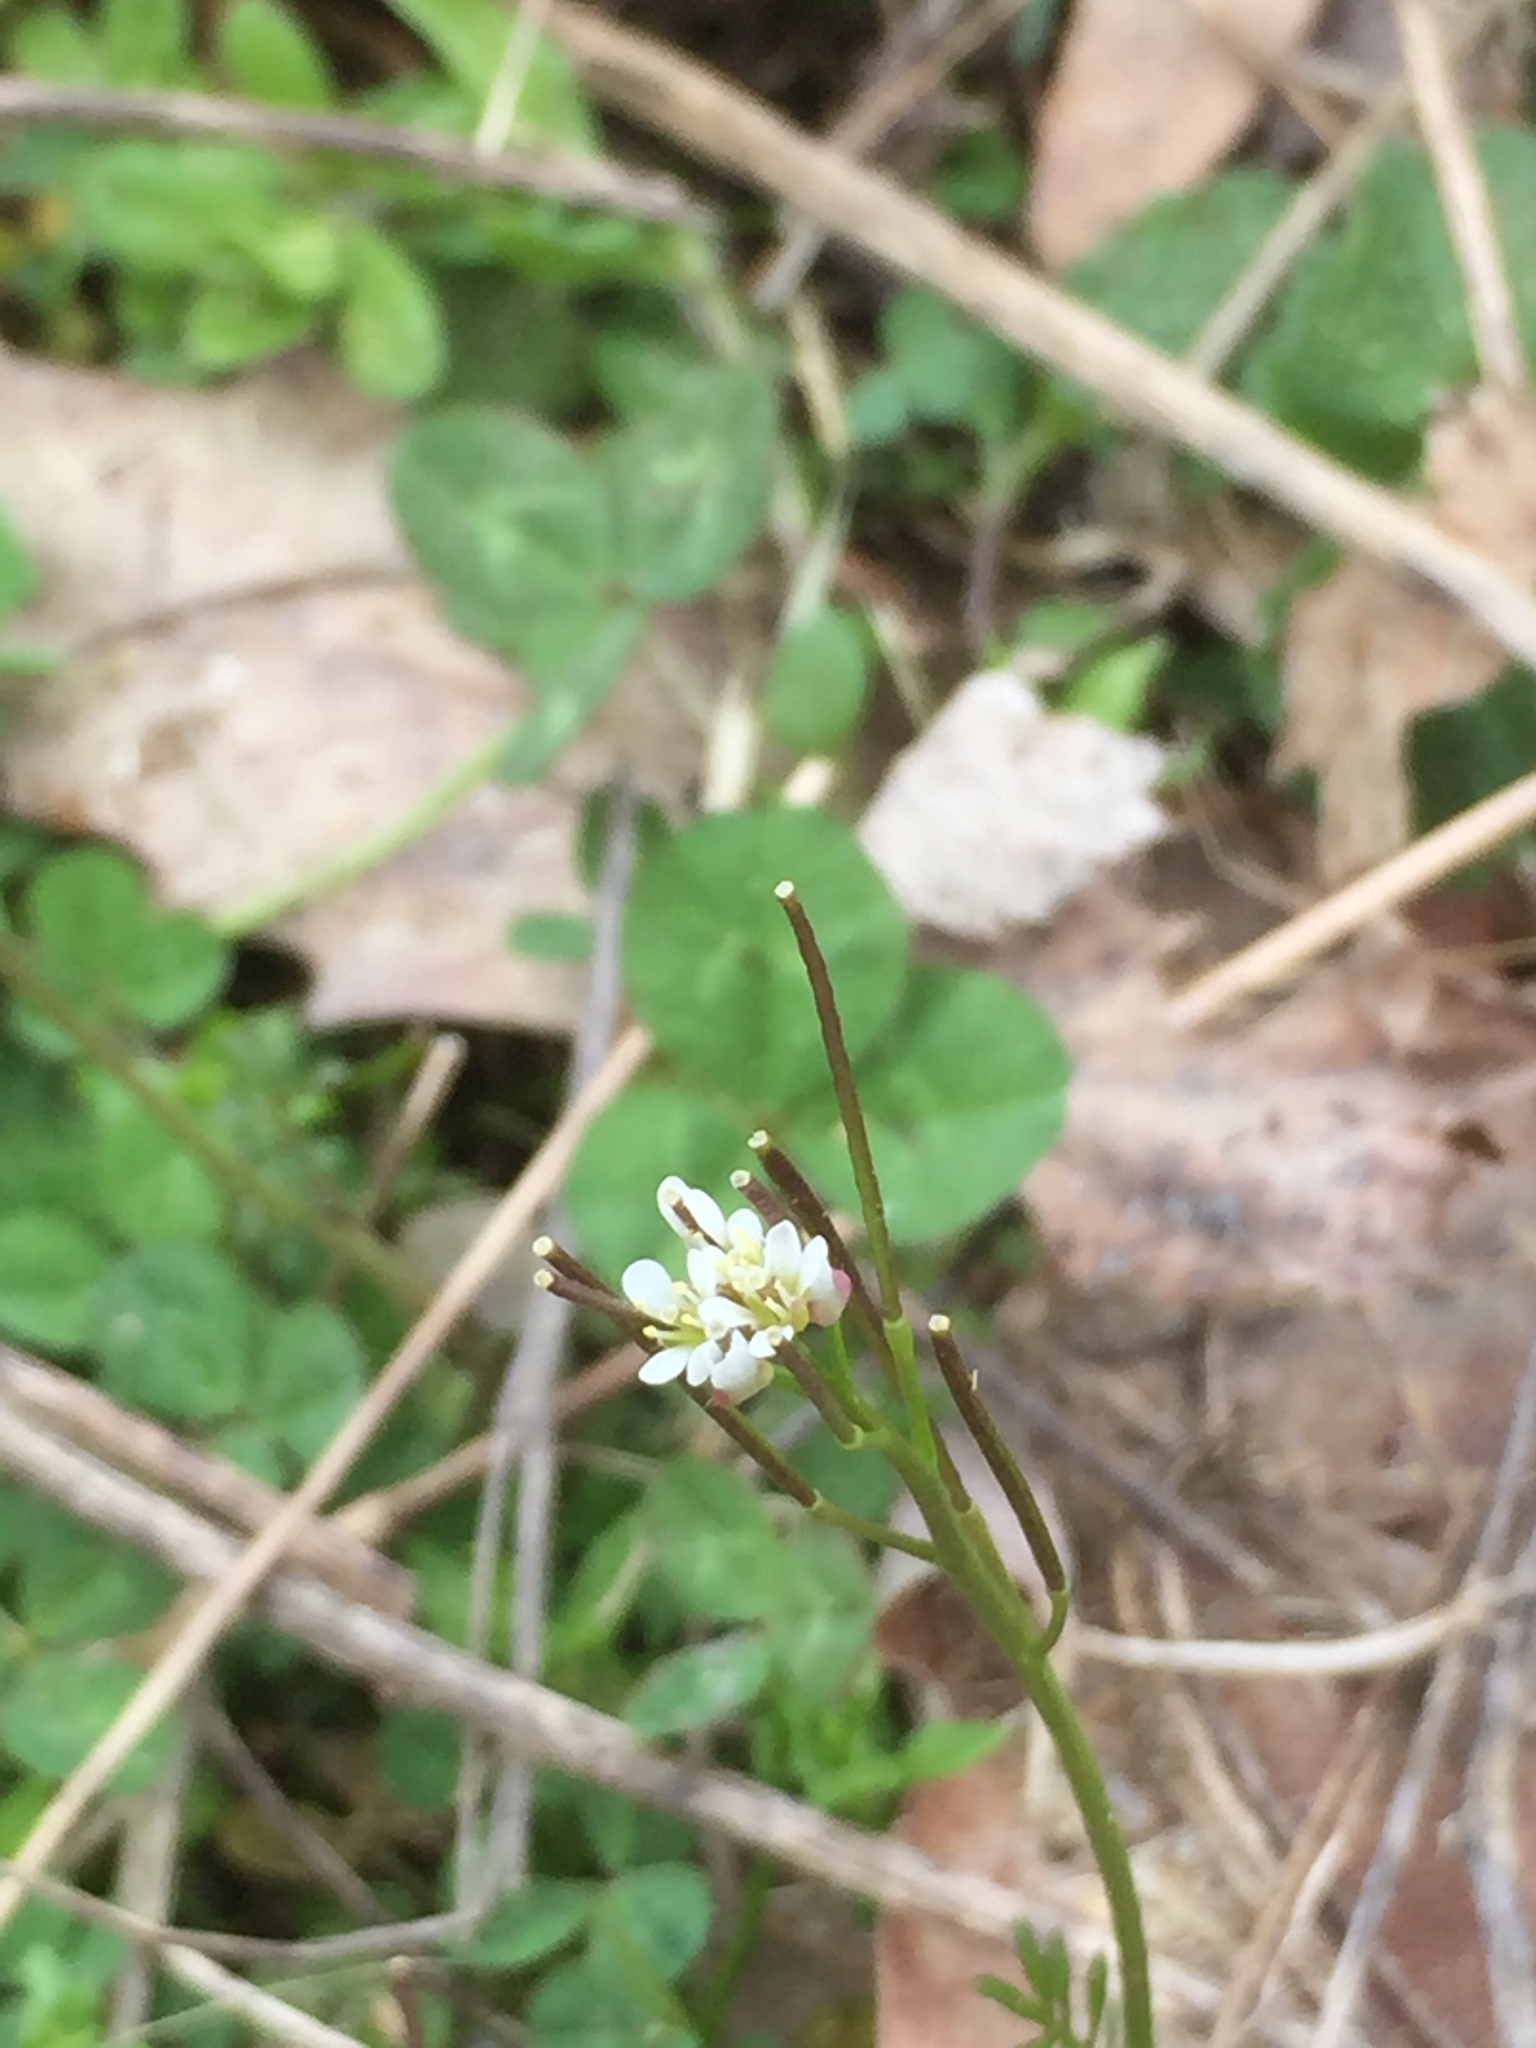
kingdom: Plantae
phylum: Tracheophyta
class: Magnoliopsida
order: Brassicales
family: Brassicaceae
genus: Cardamine
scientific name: Cardamine hirsuta
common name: Hairy bittercress
